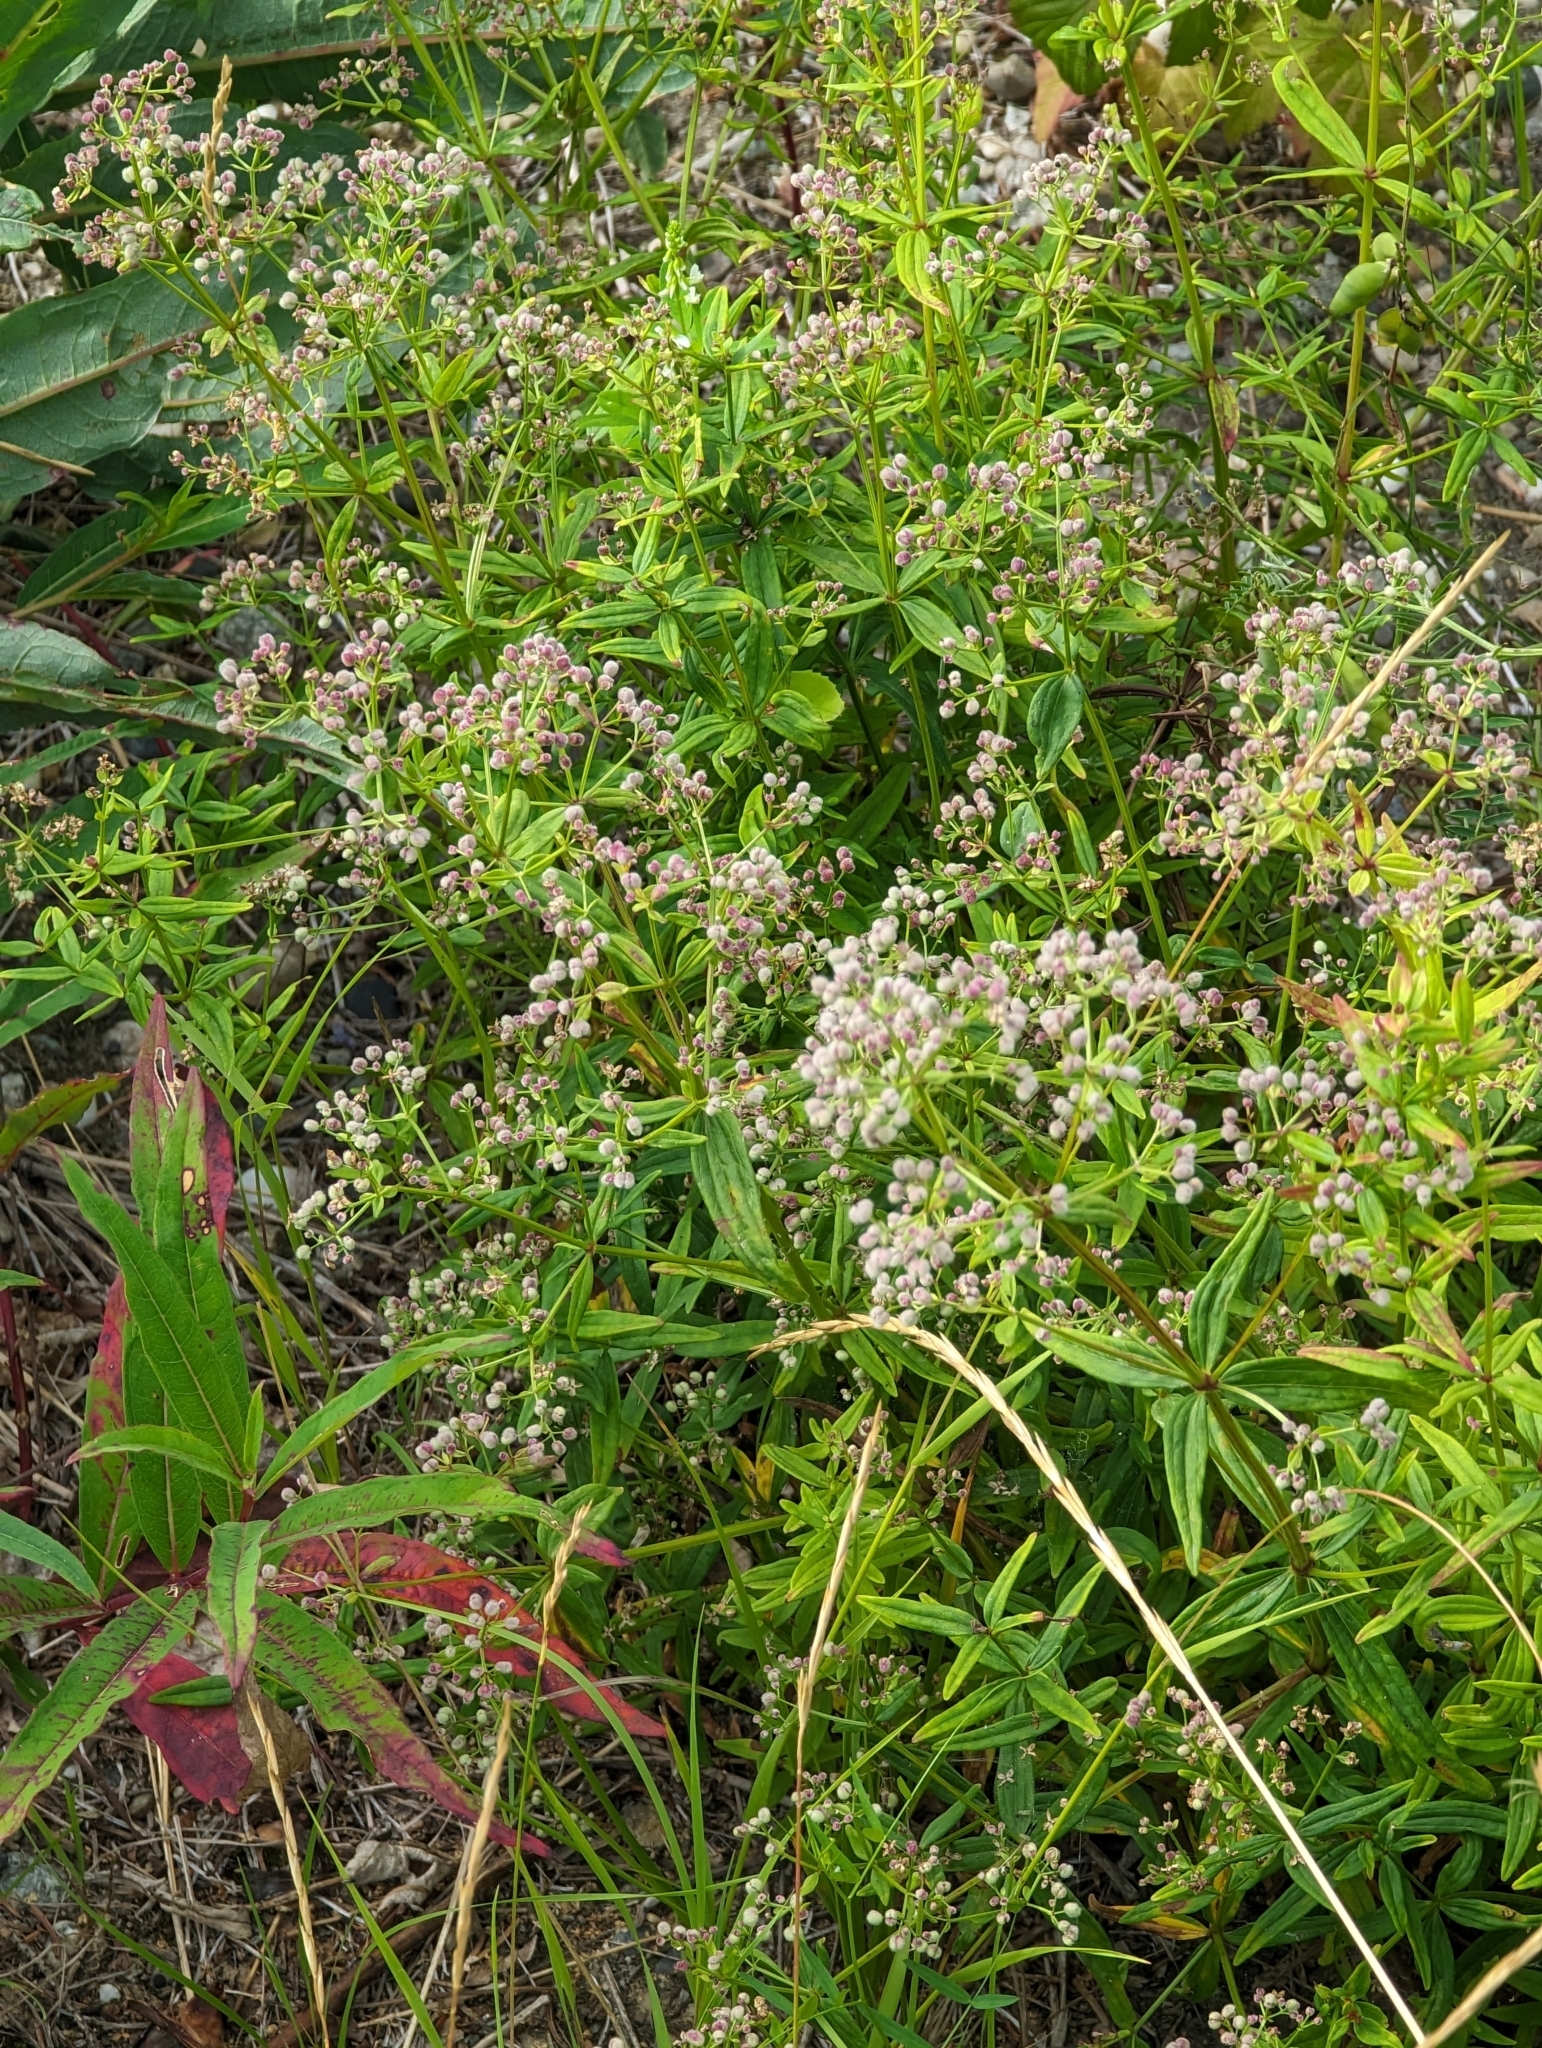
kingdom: Plantae
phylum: Tracheophyta
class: Magnoliopsida
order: Gentianales
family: Rubiaceae
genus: Galium
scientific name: Galium boreale
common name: Northern bedstraw
